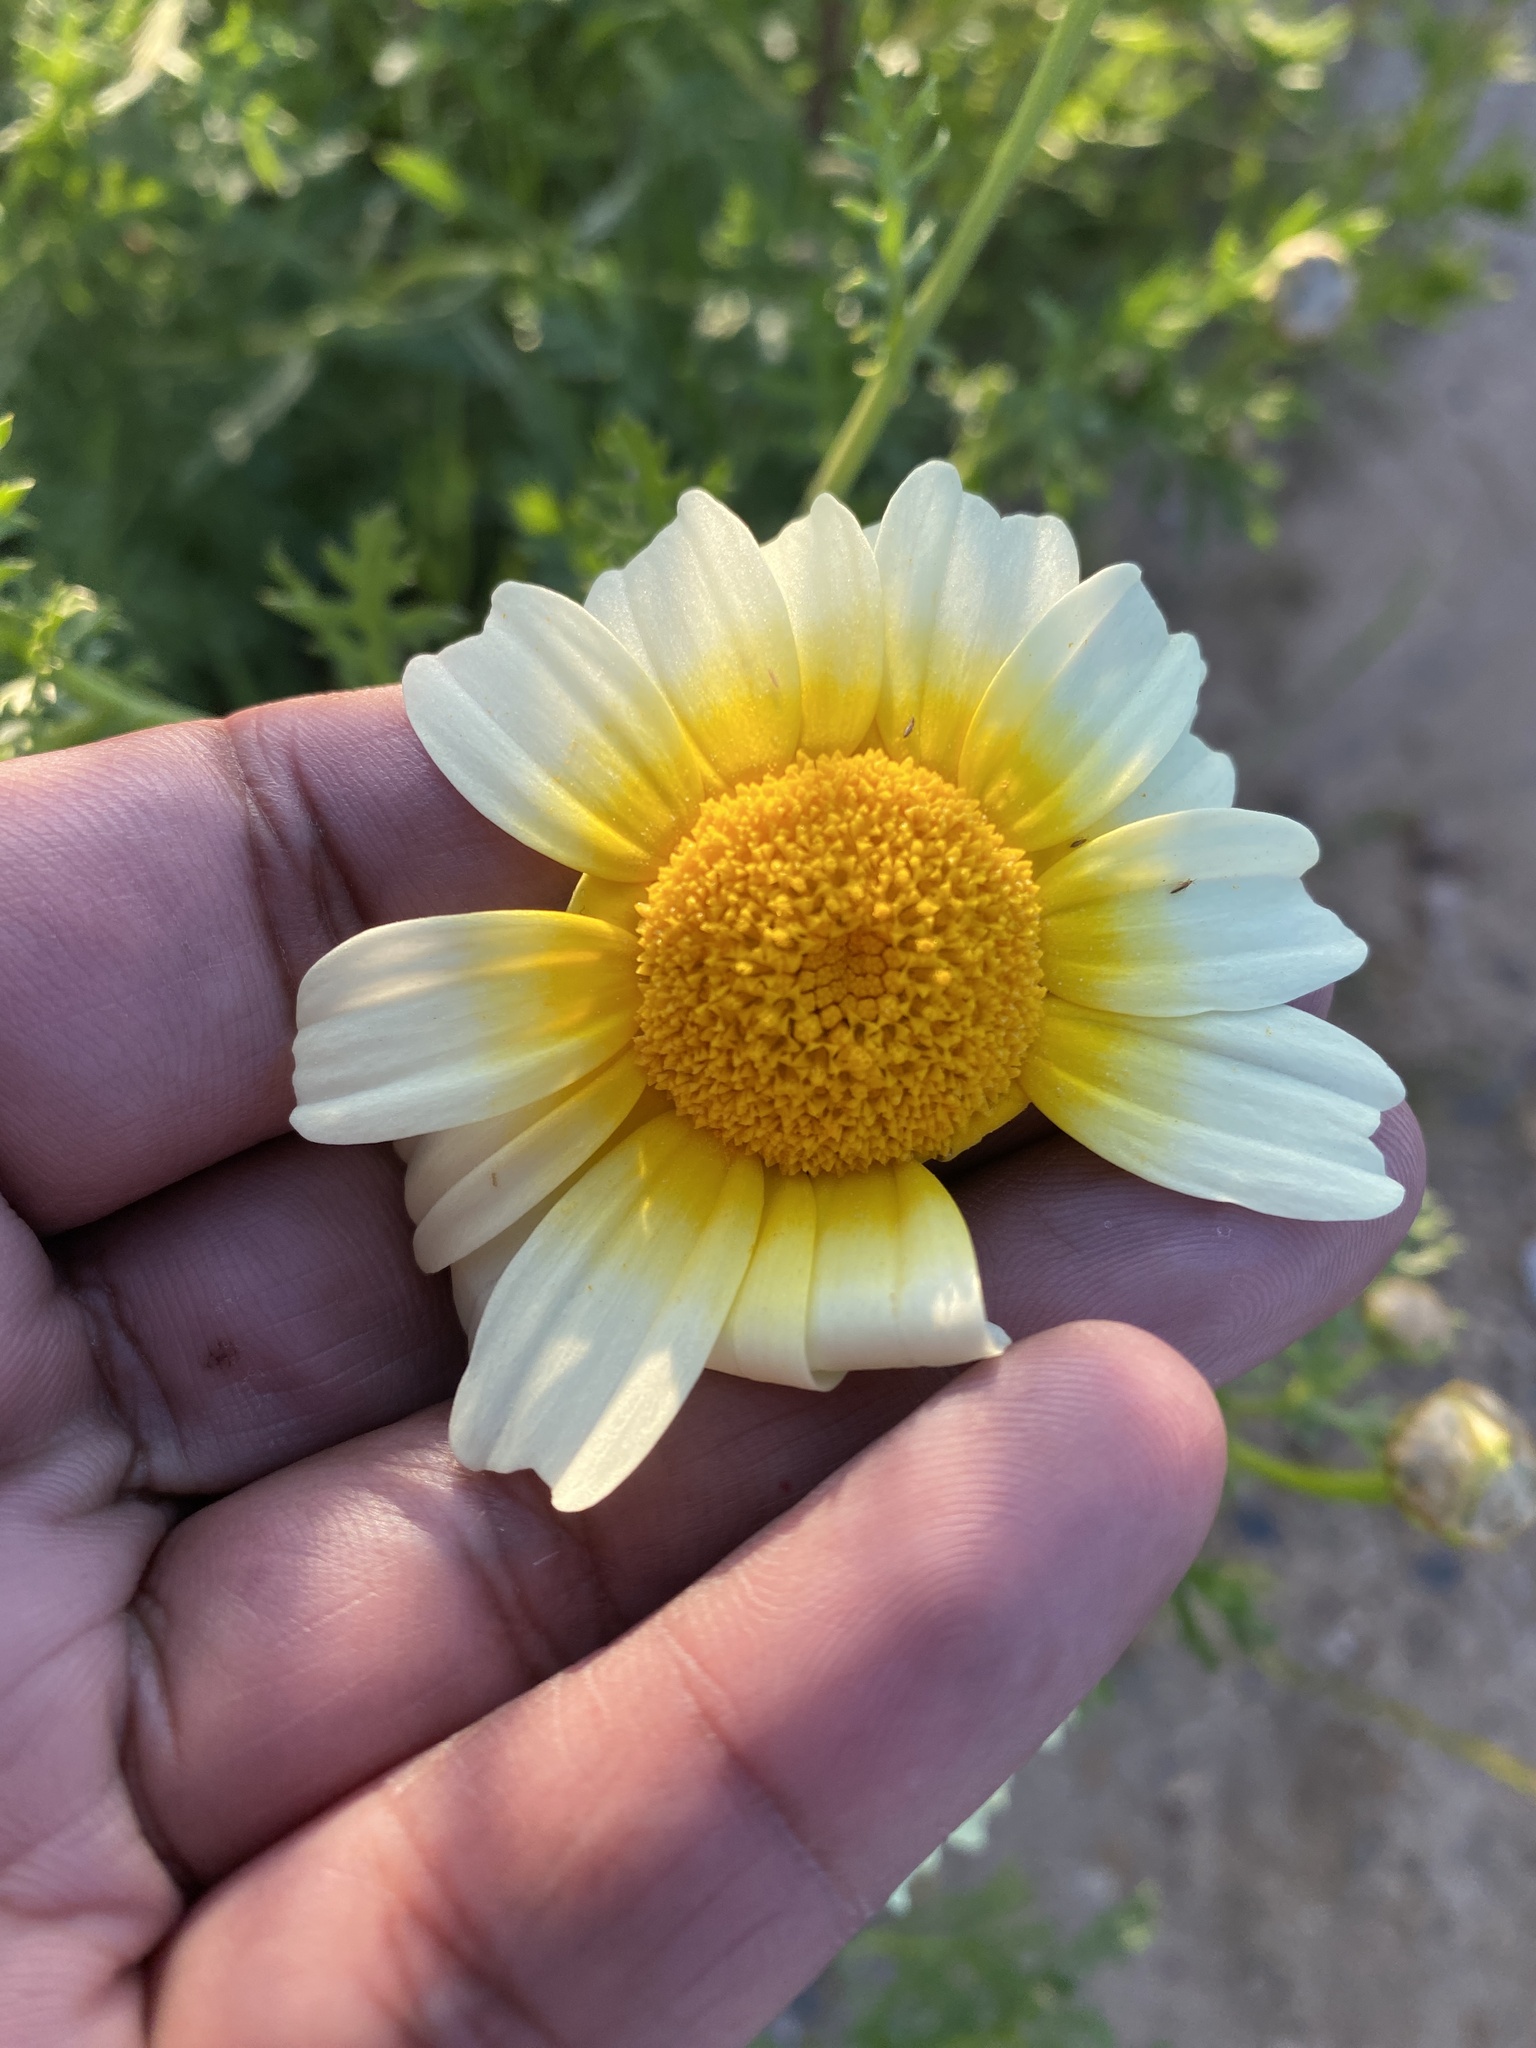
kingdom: Plantae
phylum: Tracheophyta
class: Magnoliopsida
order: Asterales
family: Asteraceae
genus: Glebionis
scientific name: Glebionis coronaria
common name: Crowndaisy
